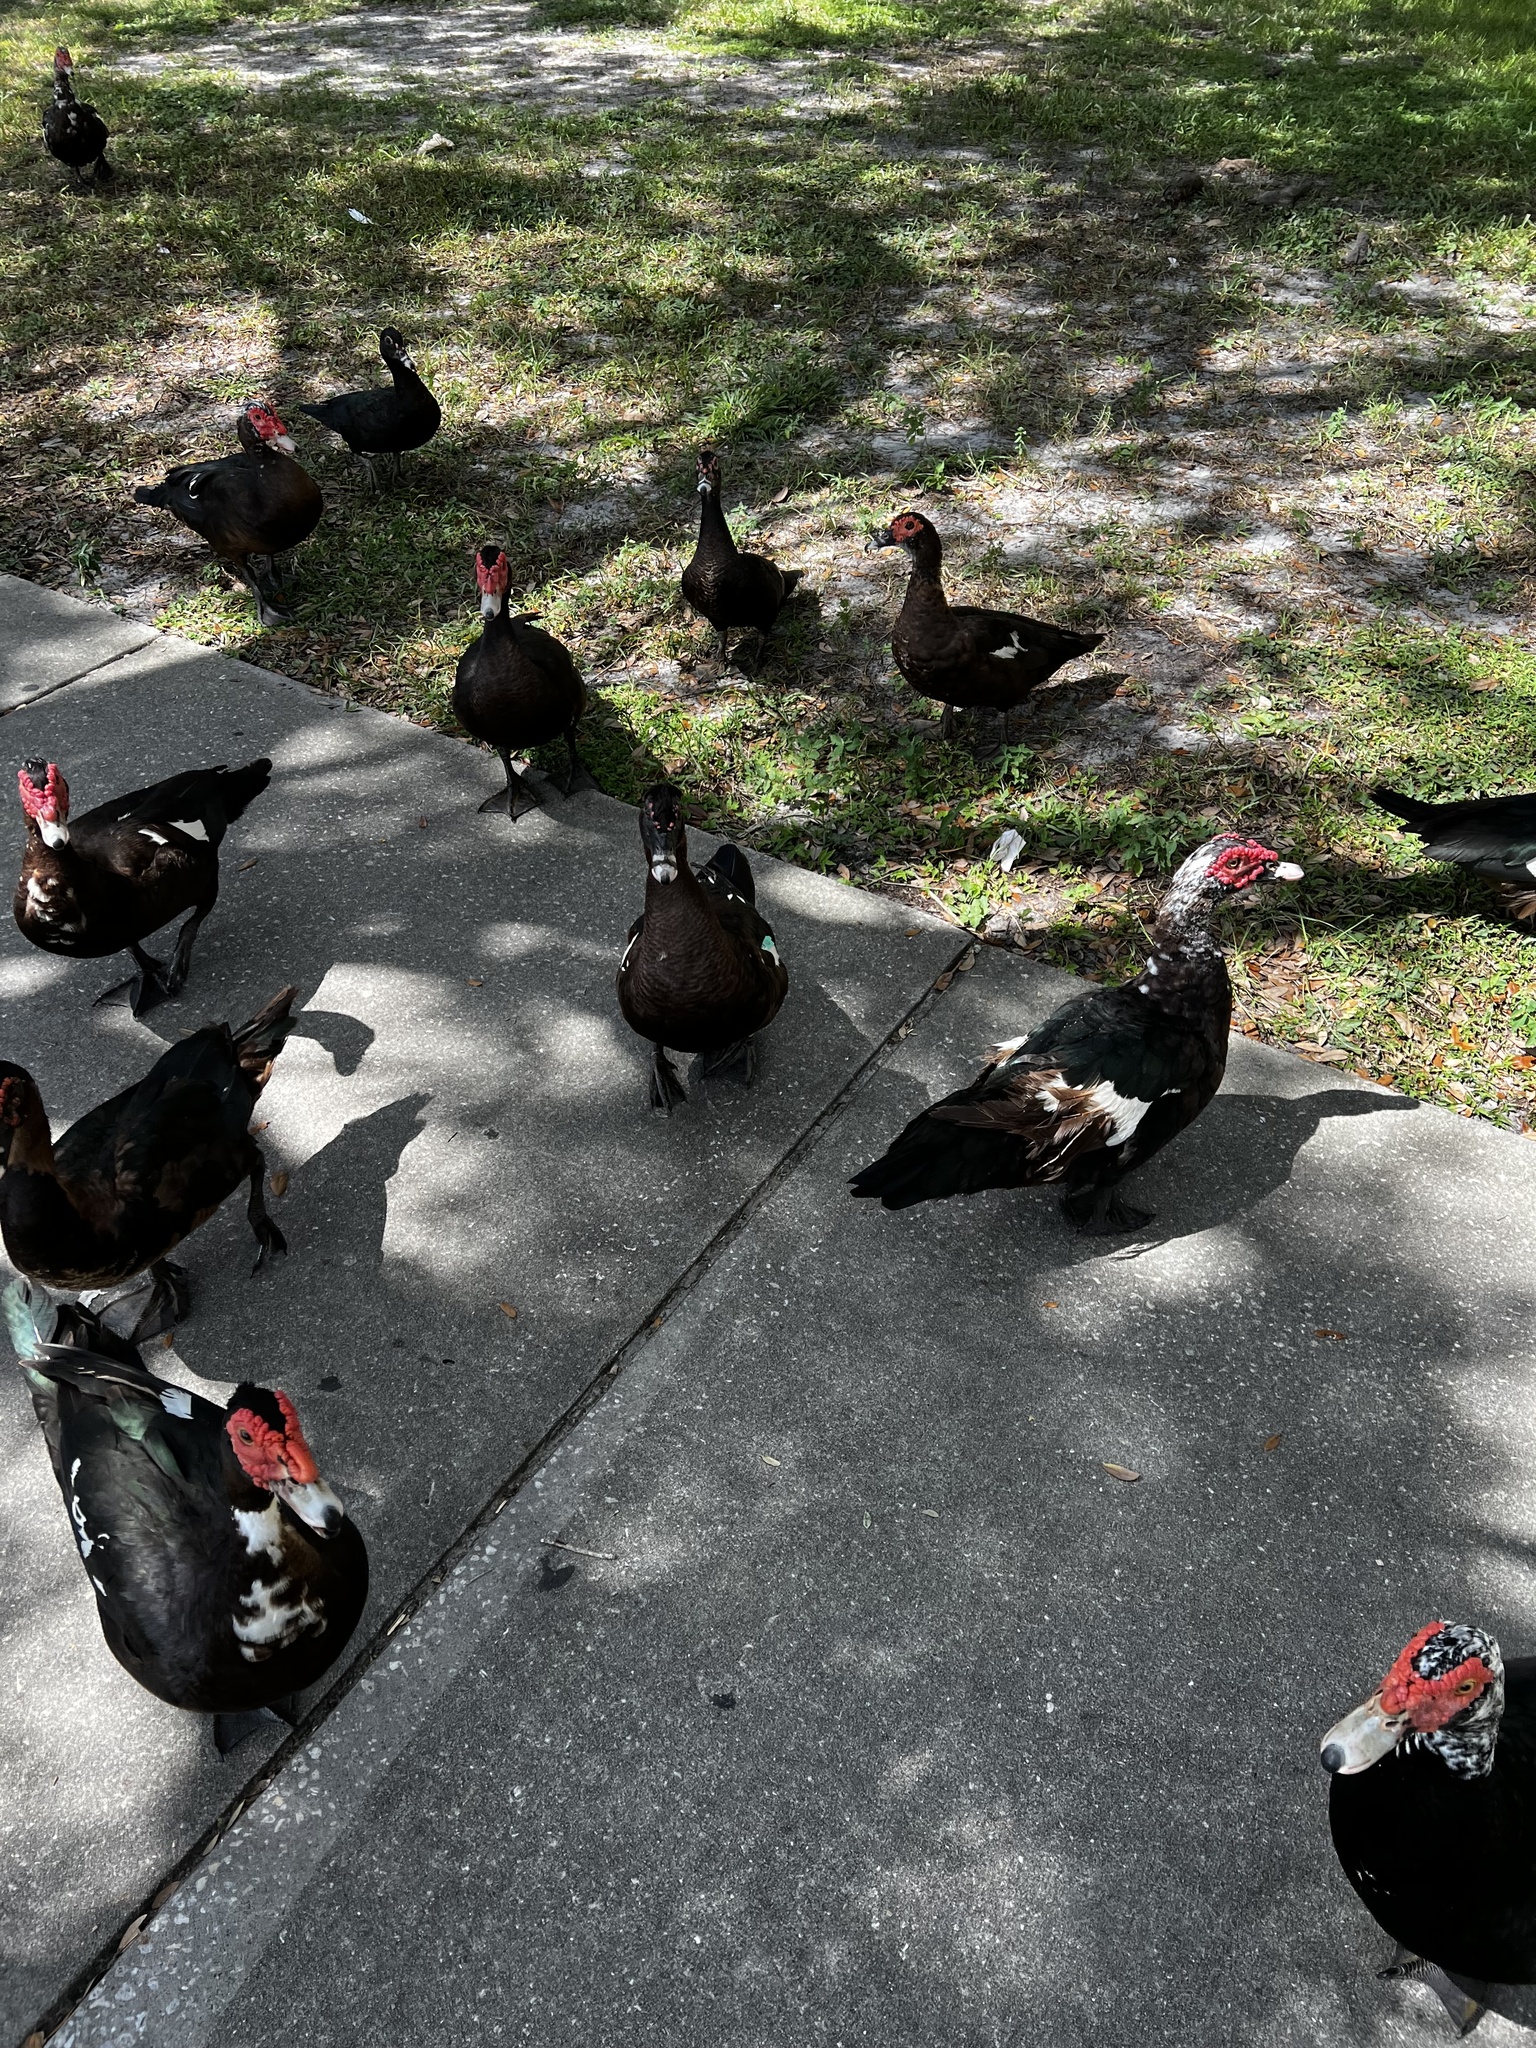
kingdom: Animalia
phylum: Chordata
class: Aves
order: Anseriformes
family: Anatidae
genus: Cairina
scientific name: Cairina moschata
